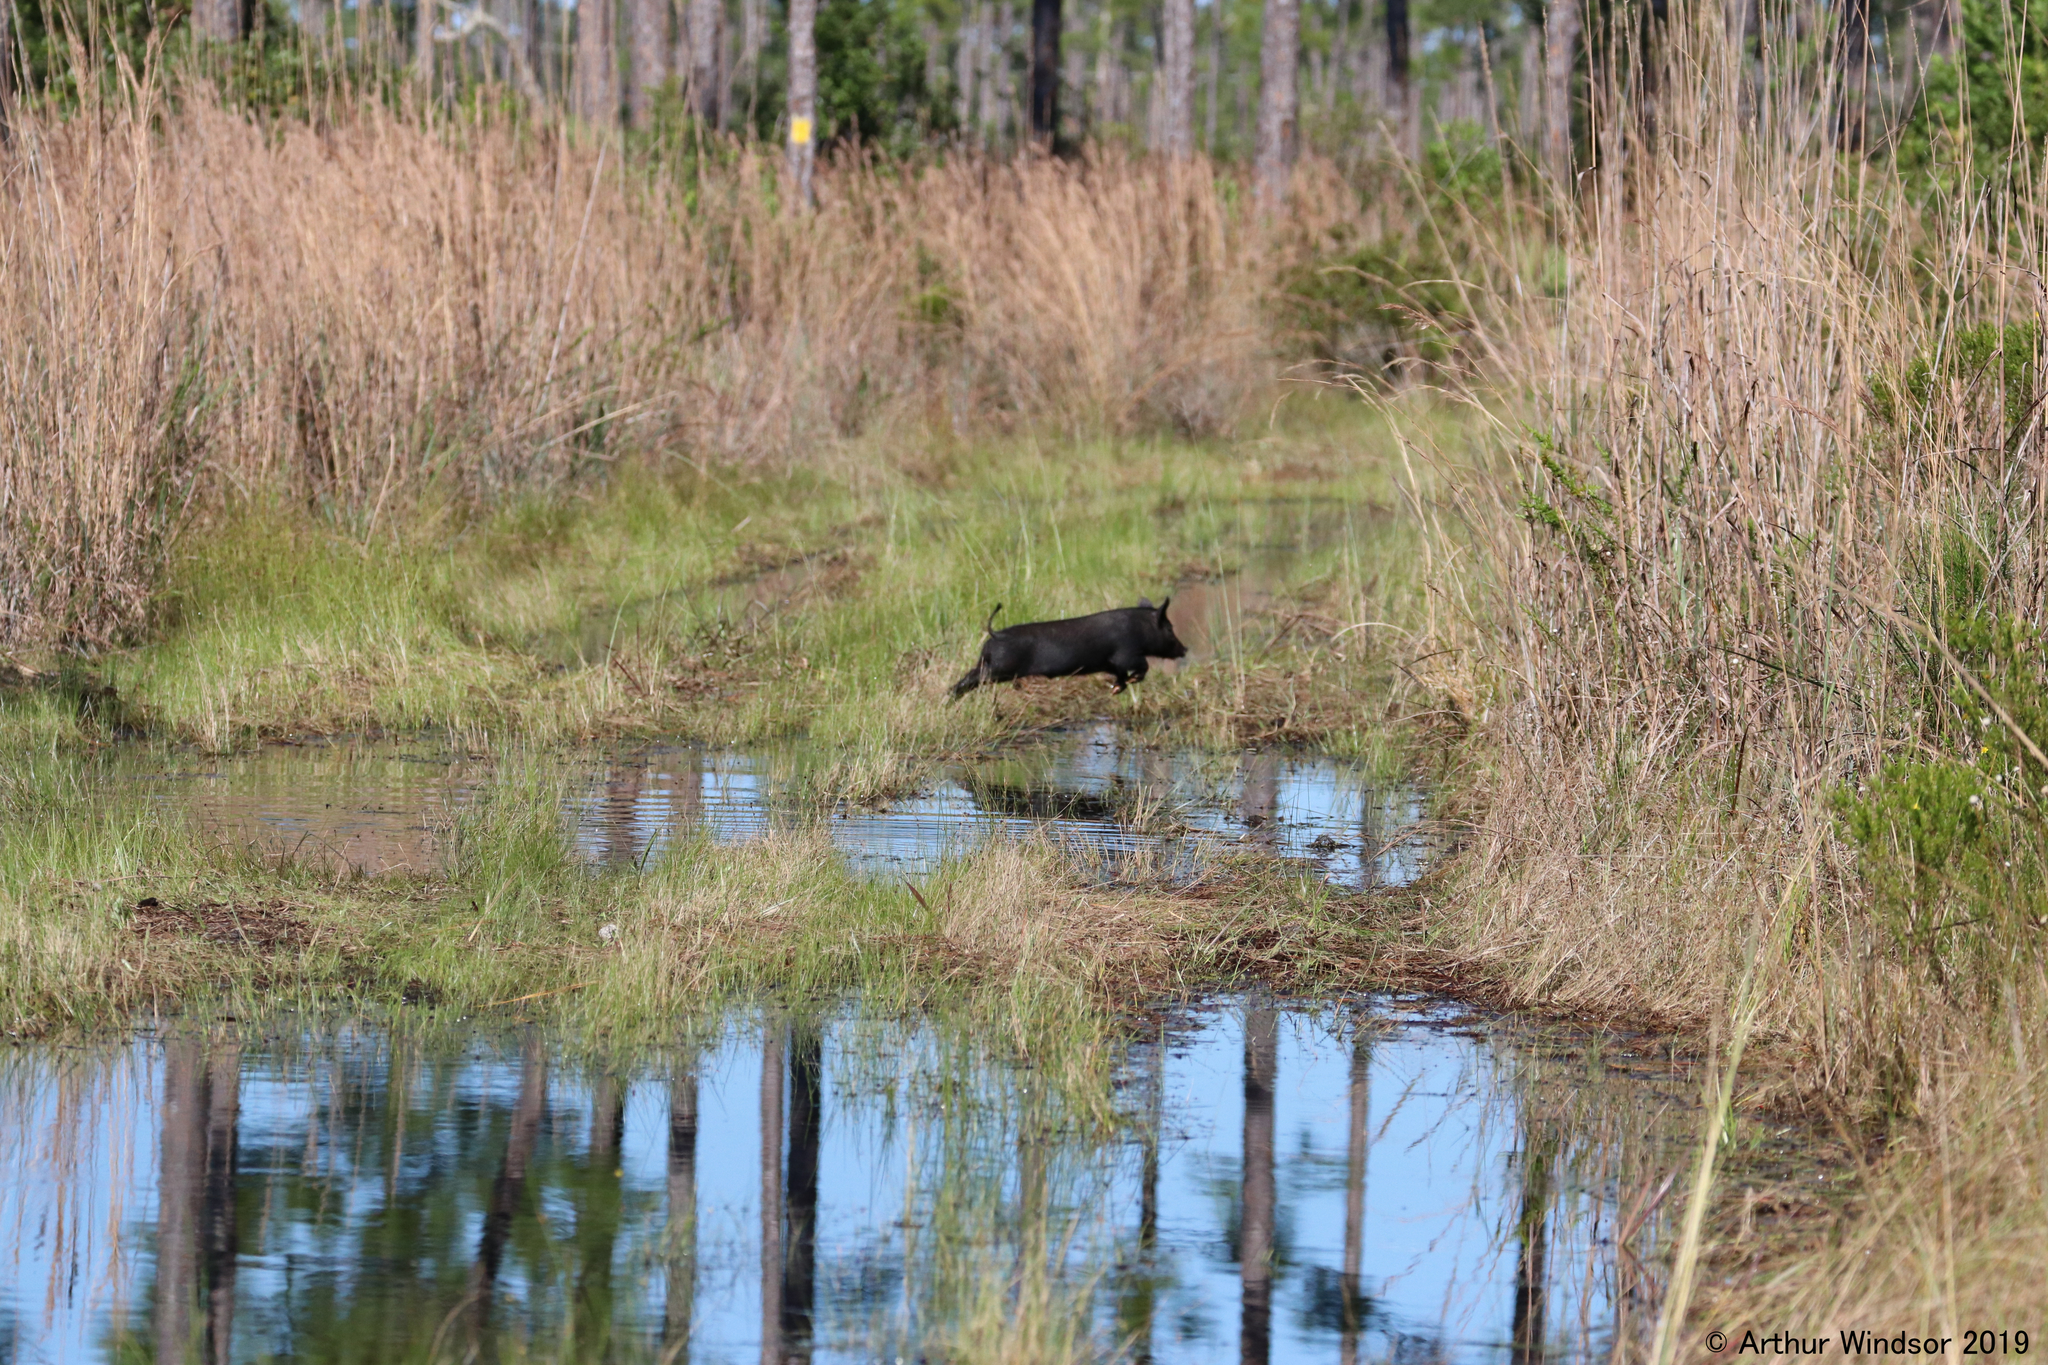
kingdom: Animalia
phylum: Chordata
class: Mammalia
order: Artiodactyla
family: Suidae
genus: Sus
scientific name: Sus scrofa
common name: Wild boar
